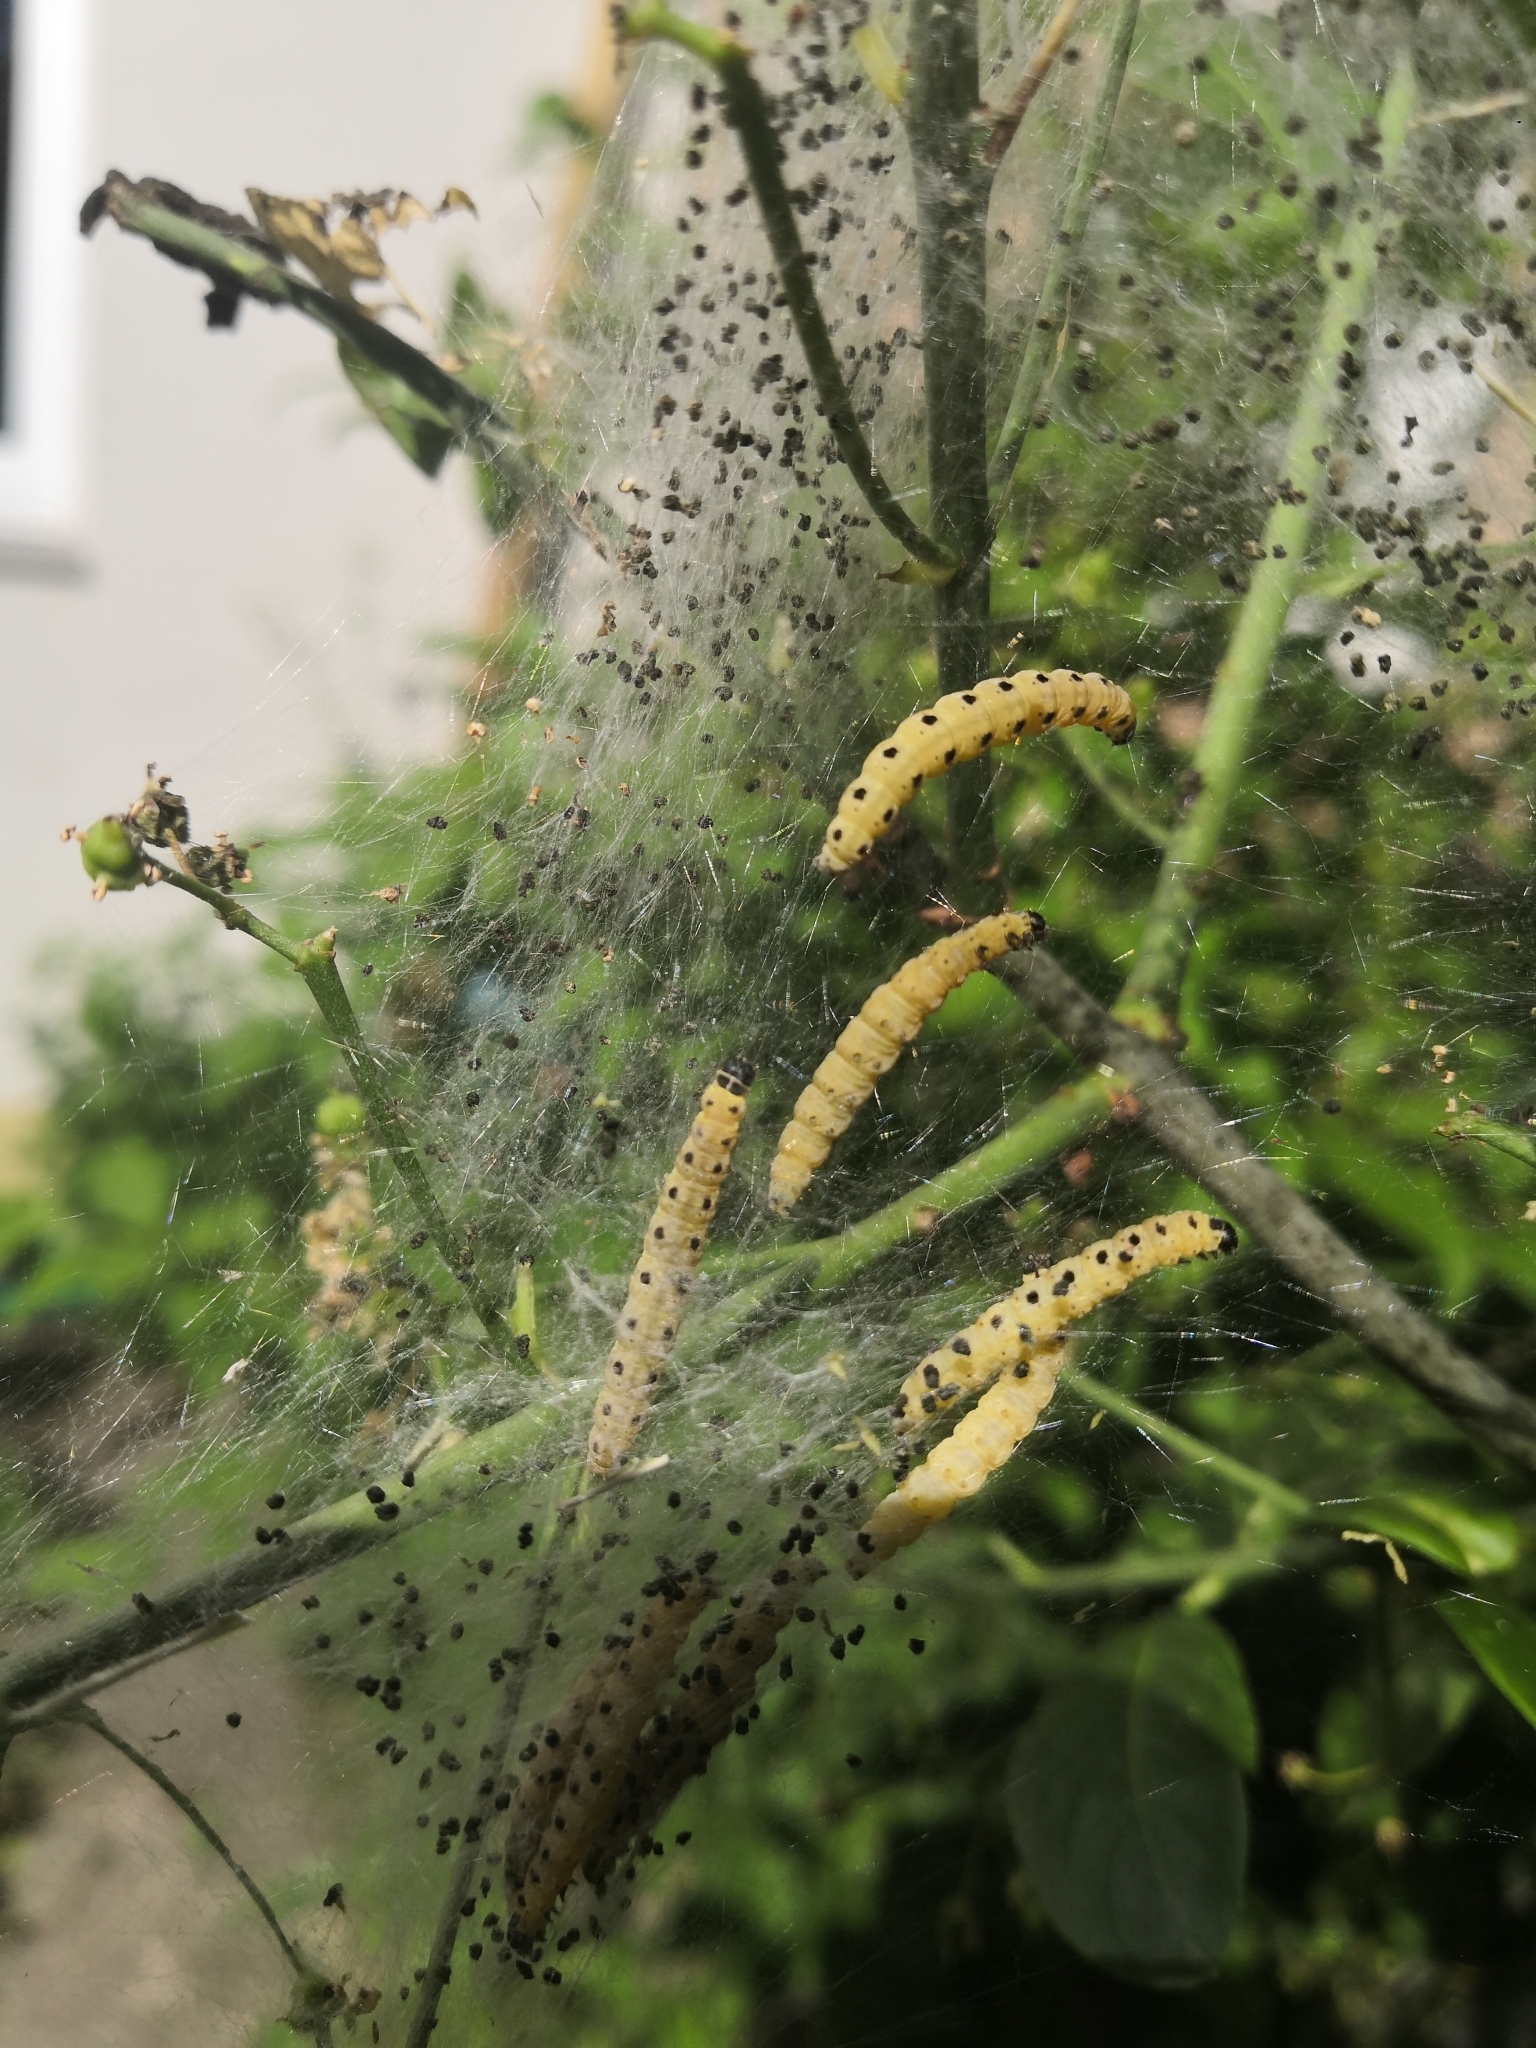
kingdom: Animalia
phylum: Arthropoda
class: Insecta
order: Lepidoptera
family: Yponomeutidae
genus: Yponomeuta
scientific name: Yponomeuta cagnagellus
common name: Spindle ermine
